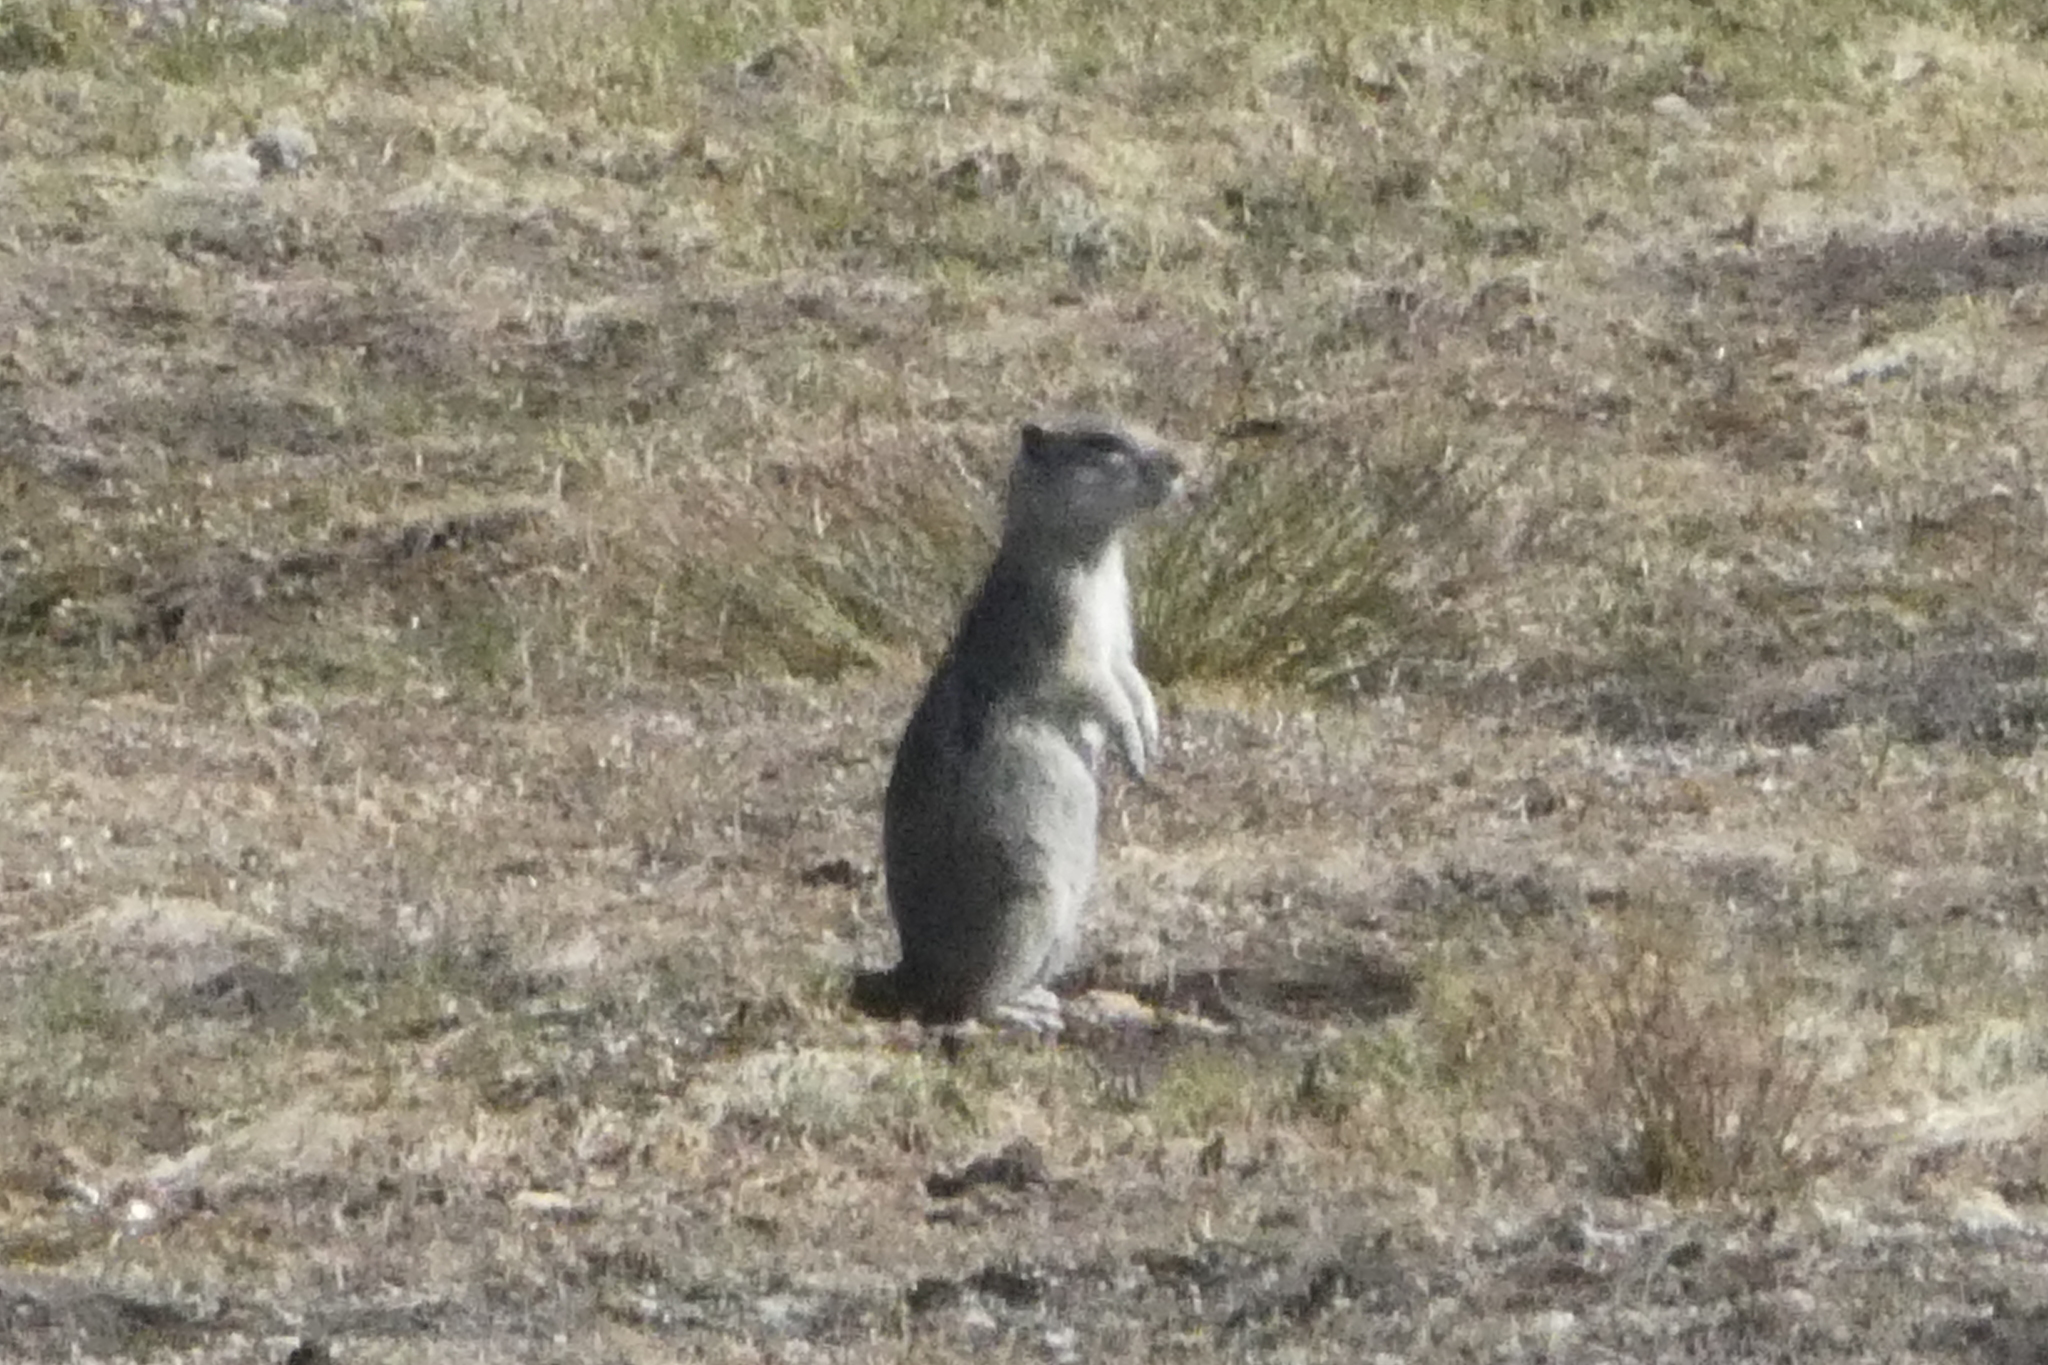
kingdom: Animalia
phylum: Chordata
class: Mammalia
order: Rodentia
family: Sciuridae
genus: Urocitellus
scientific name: Urocitellus beldingi
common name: Belding's ground squirrel
